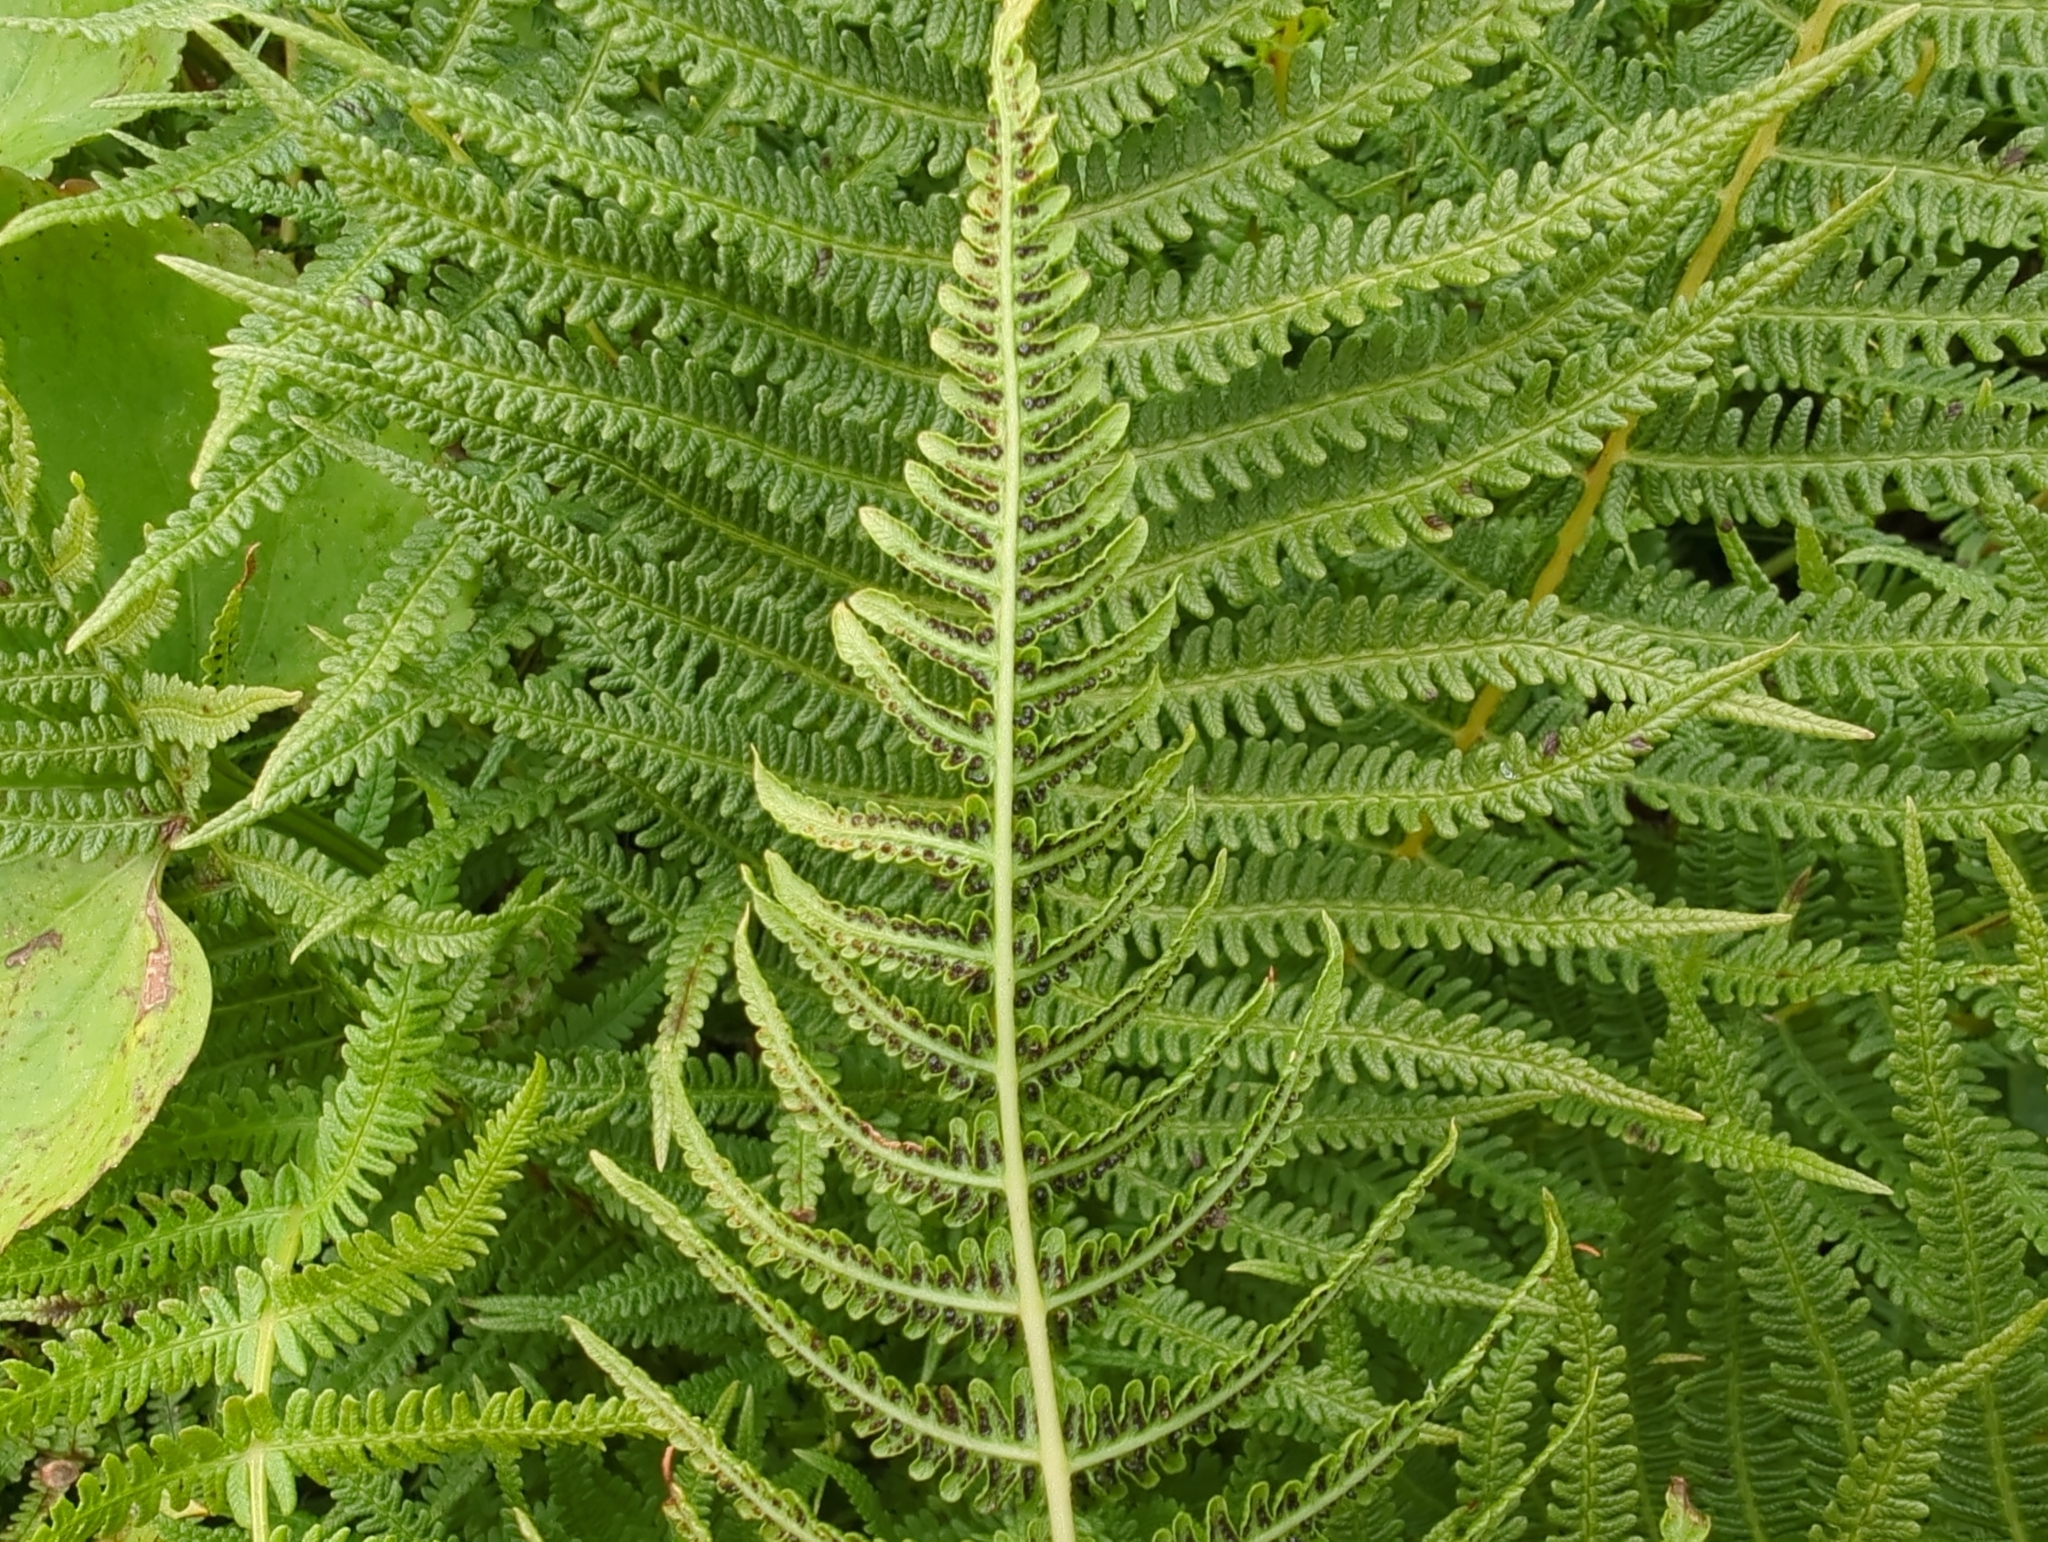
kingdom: Plantae
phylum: Tracheophyta
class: Polypodiopsida
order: Polypodiales
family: Thelypteridaceae
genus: Oreopteris
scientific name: Oreopteris quelpartensis
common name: Mountain fern
